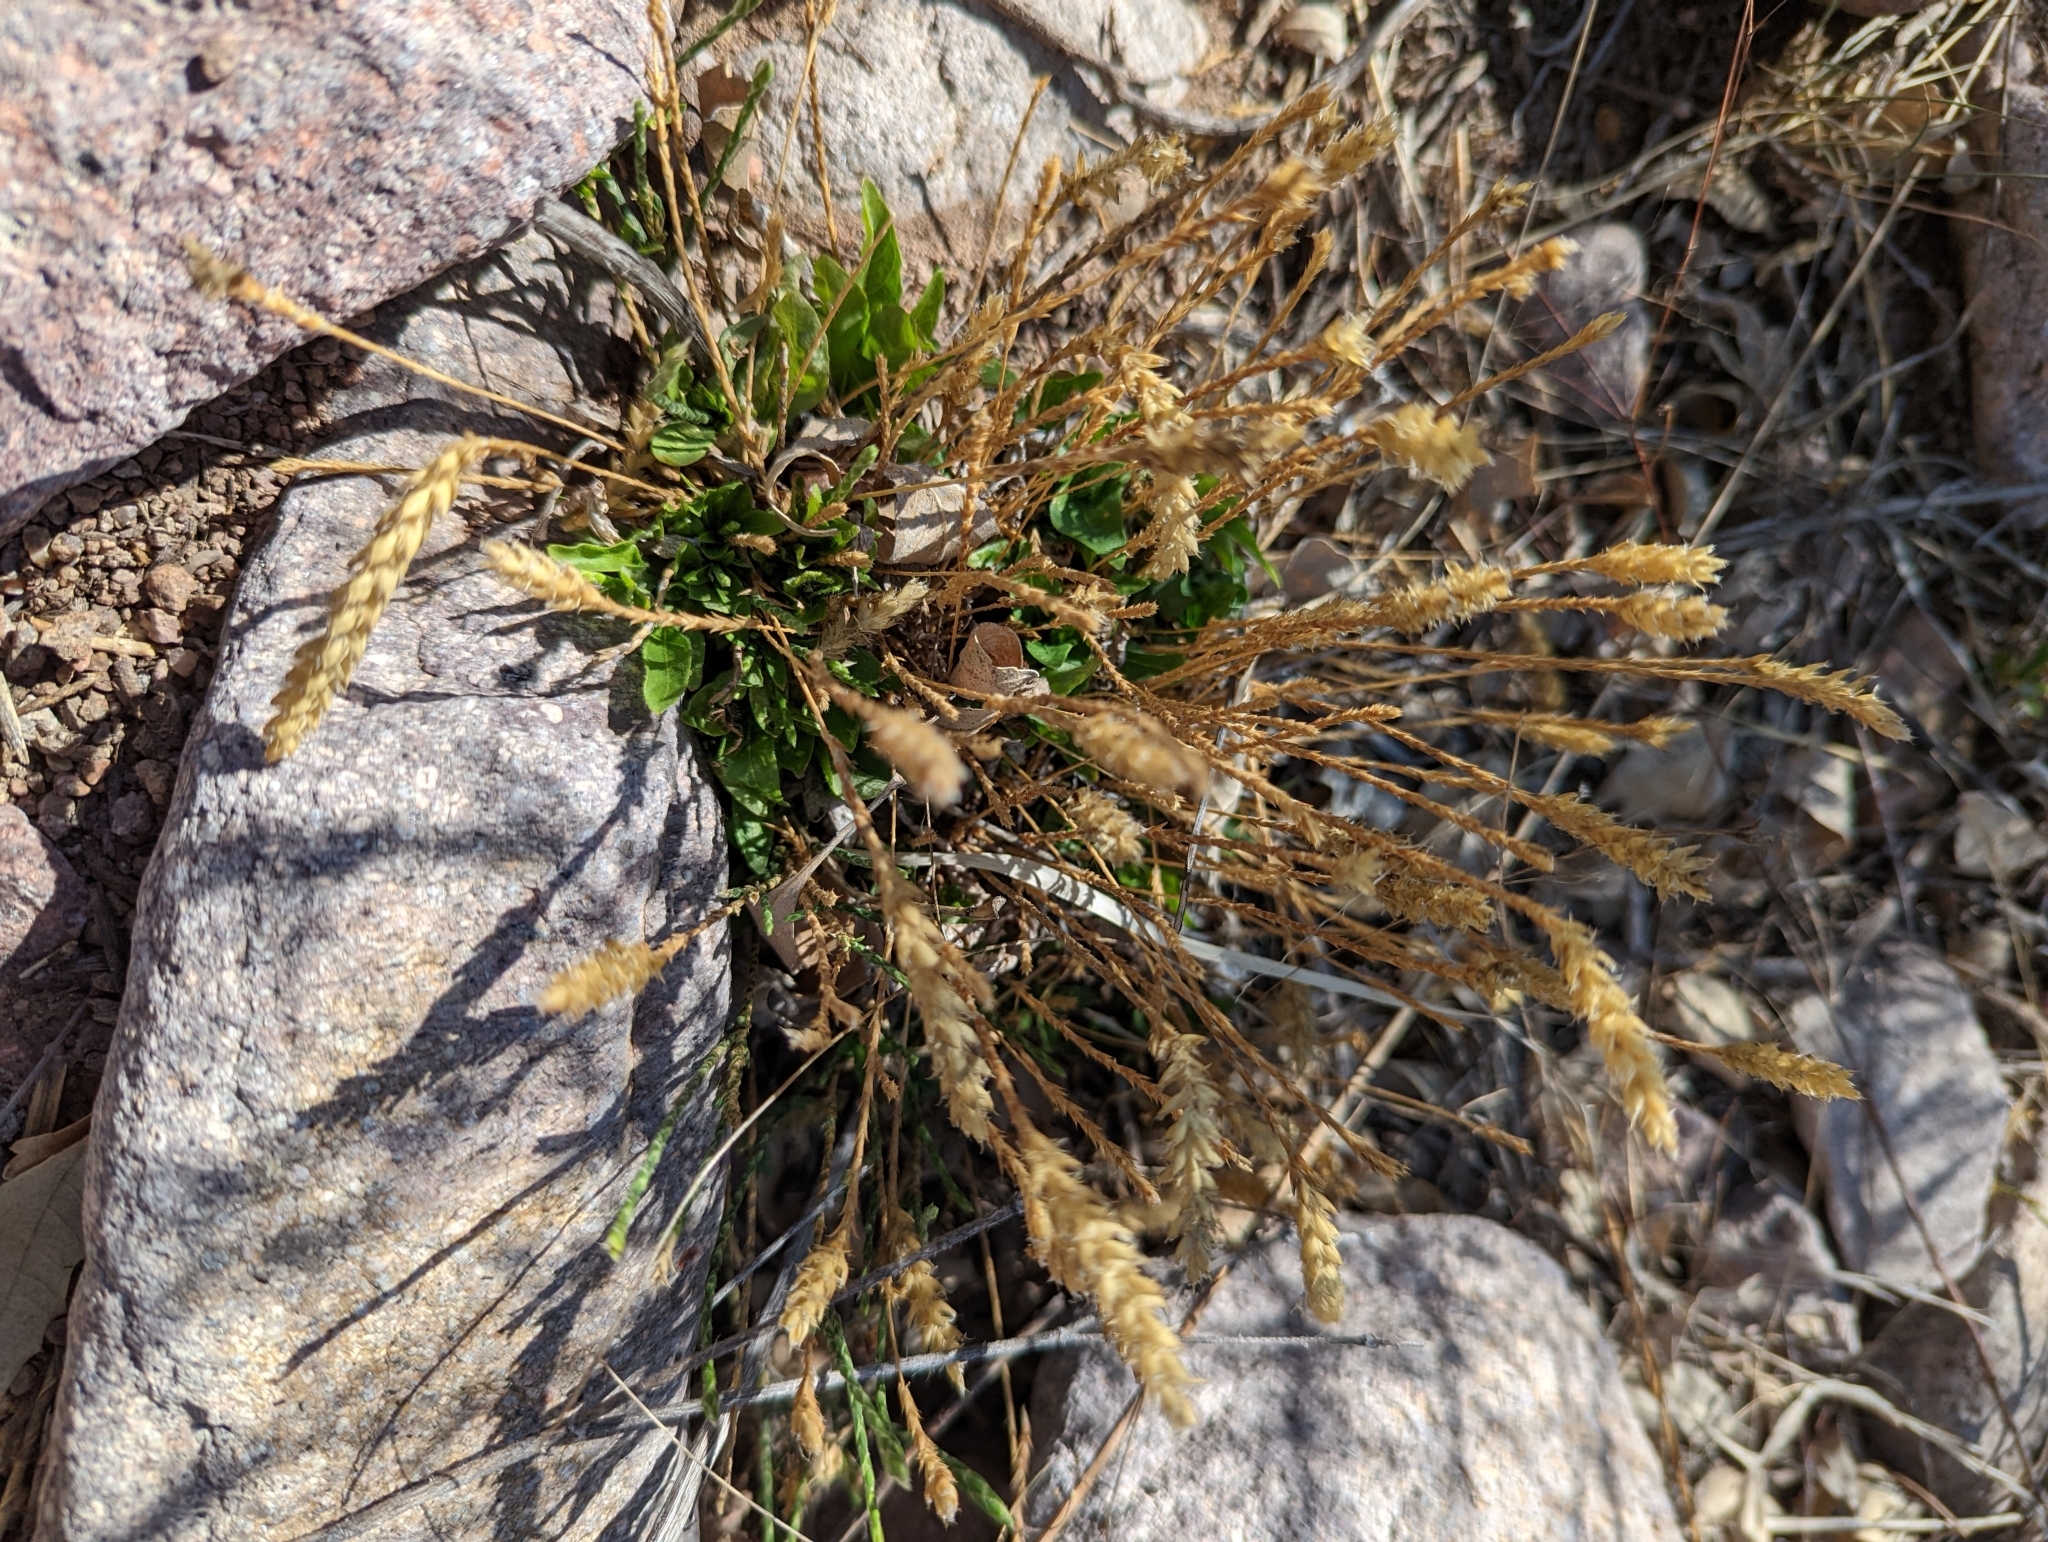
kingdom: Plantae
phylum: Tracheophyta
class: Magnoliopsida
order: Lamiales
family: Acanthaceae
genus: Elytraria
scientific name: Elytraria imbricata
